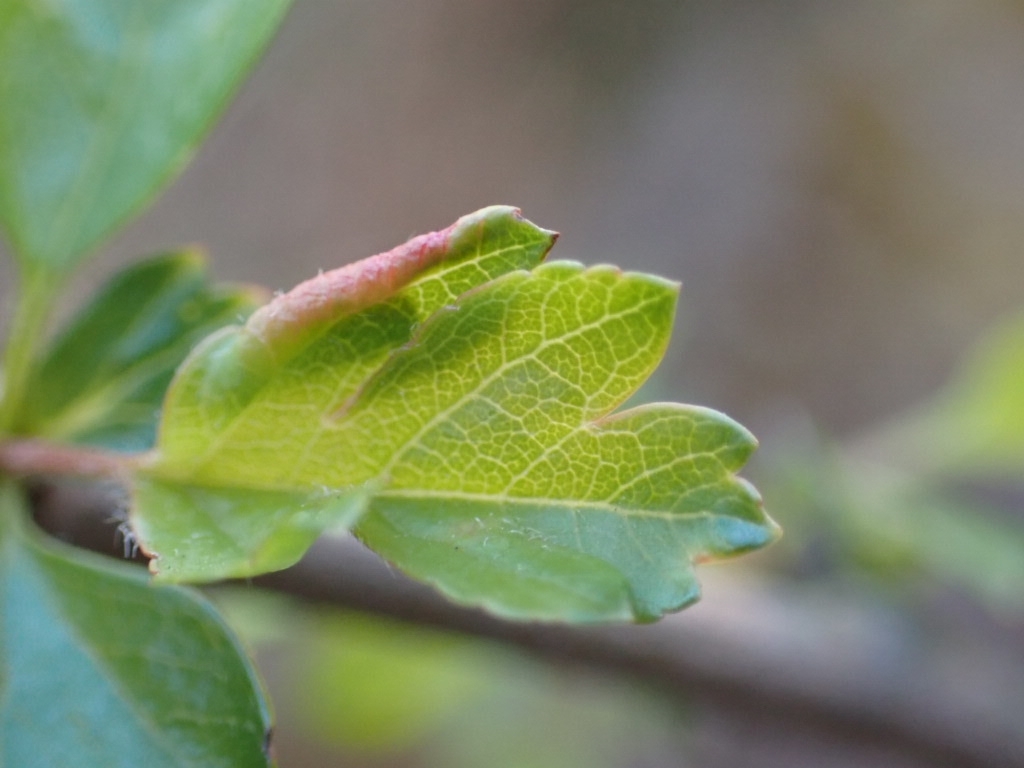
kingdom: Animalia
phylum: Arthropoda
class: Arachnida
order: Trombidiformes
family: Eriophyidae
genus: Phyllocoptes
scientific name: Phyllocoptes goniothorax
